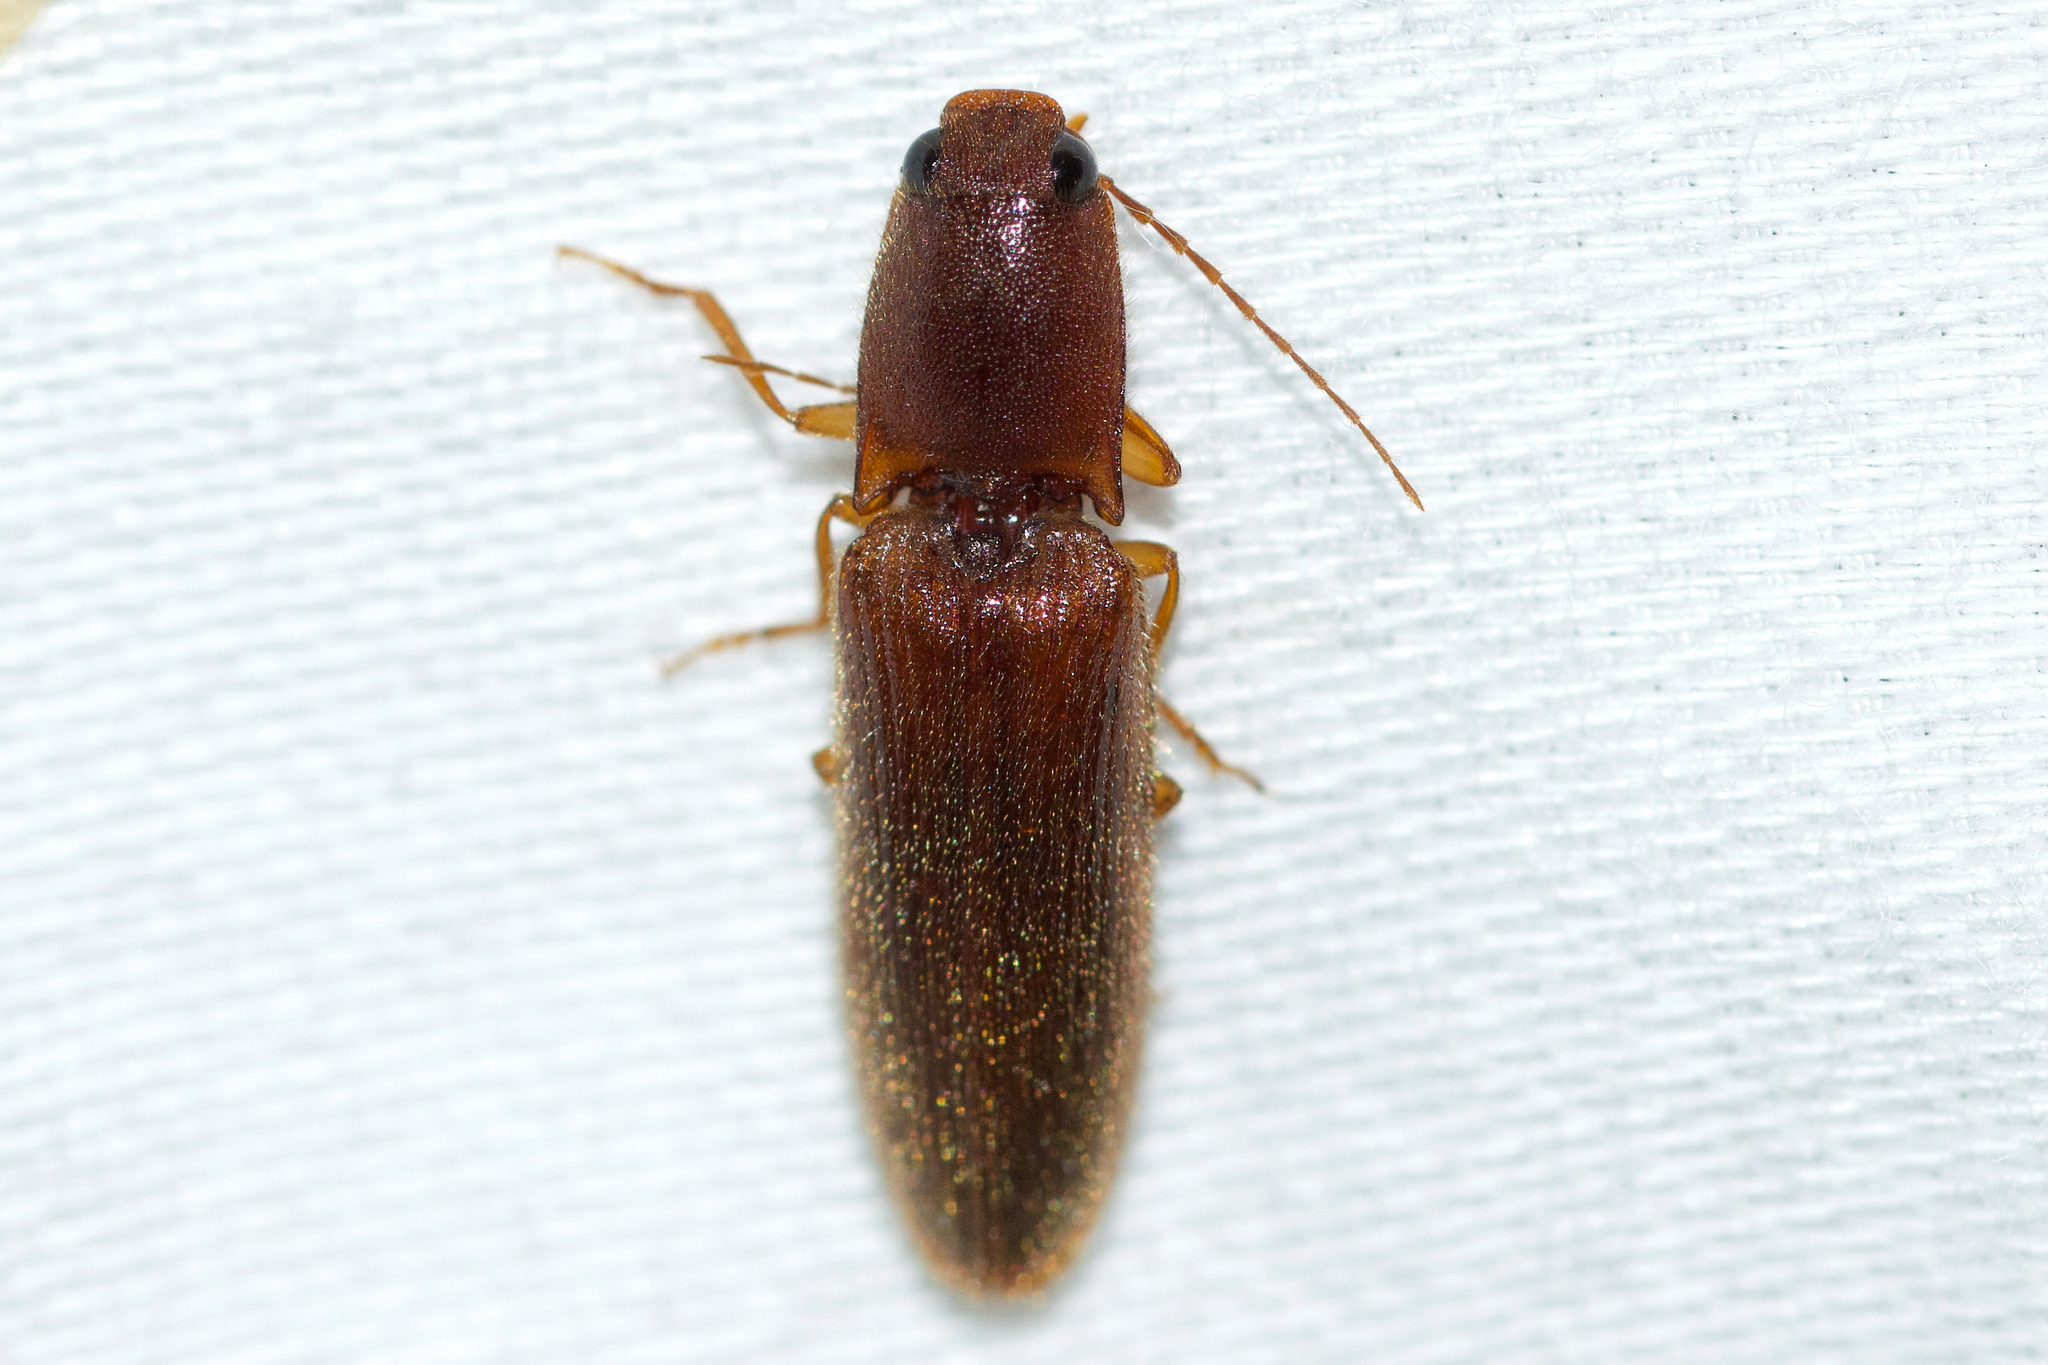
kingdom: Animalia
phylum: Arthropoda
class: Insecta
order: Coleoptera
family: Elateridae
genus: Athous
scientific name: Athous cucullatus
